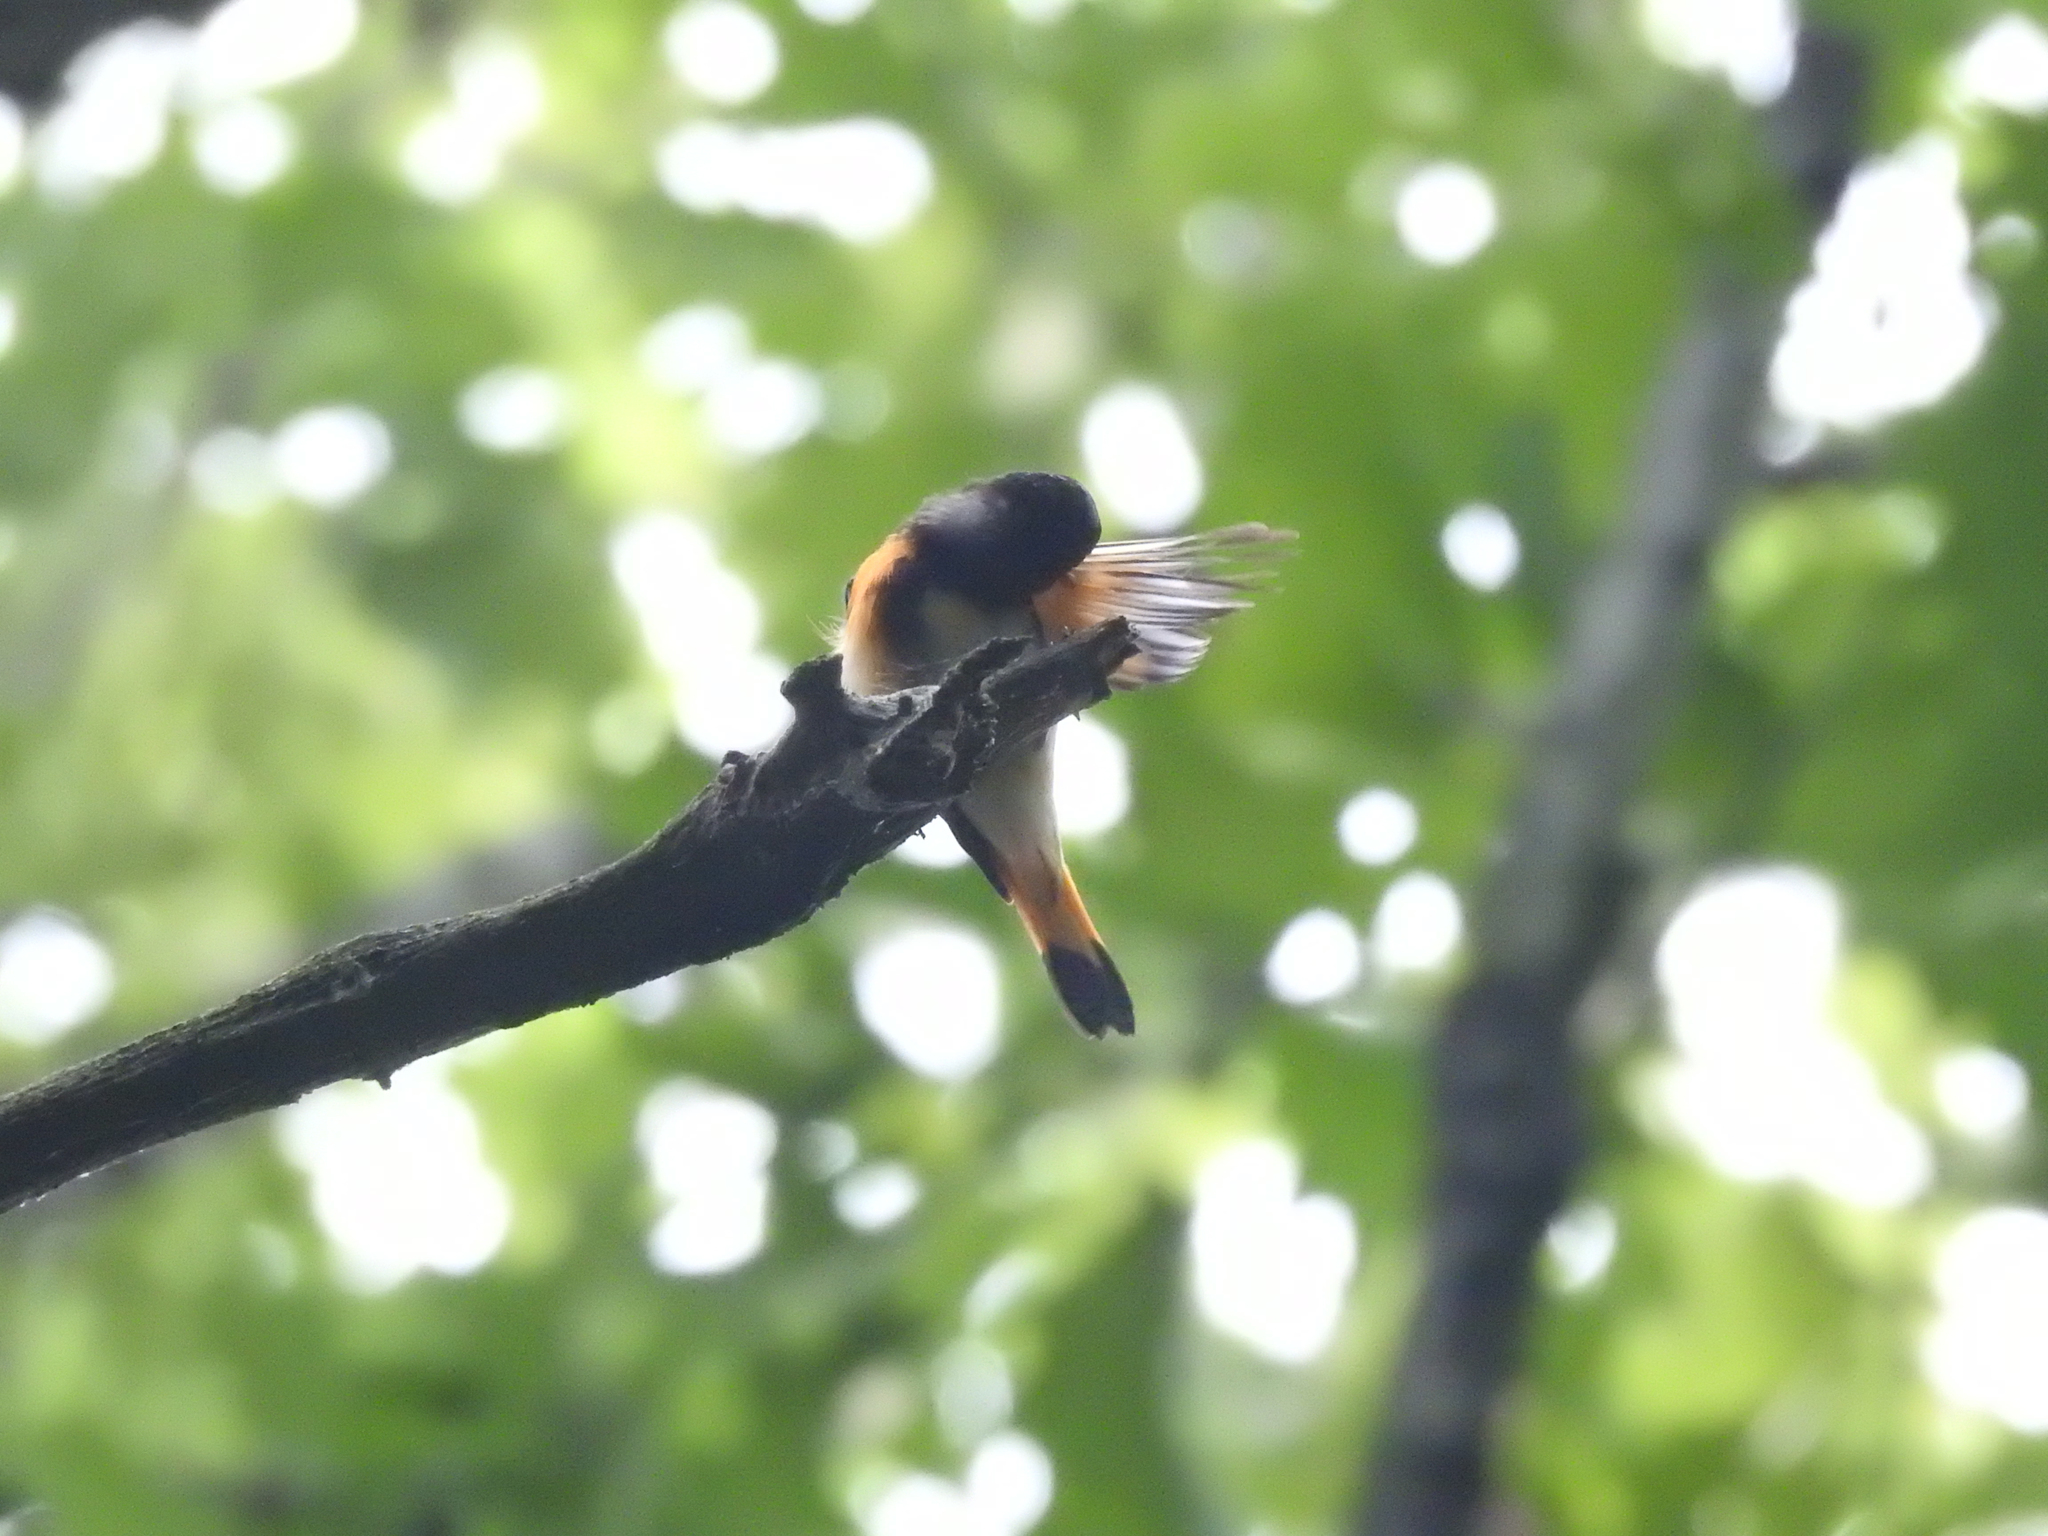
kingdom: Animalia
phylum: Chordata
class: Aves
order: Passeriformes
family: Parulidae
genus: Setophaga
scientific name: Setophaga ruticilla
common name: American redstart
